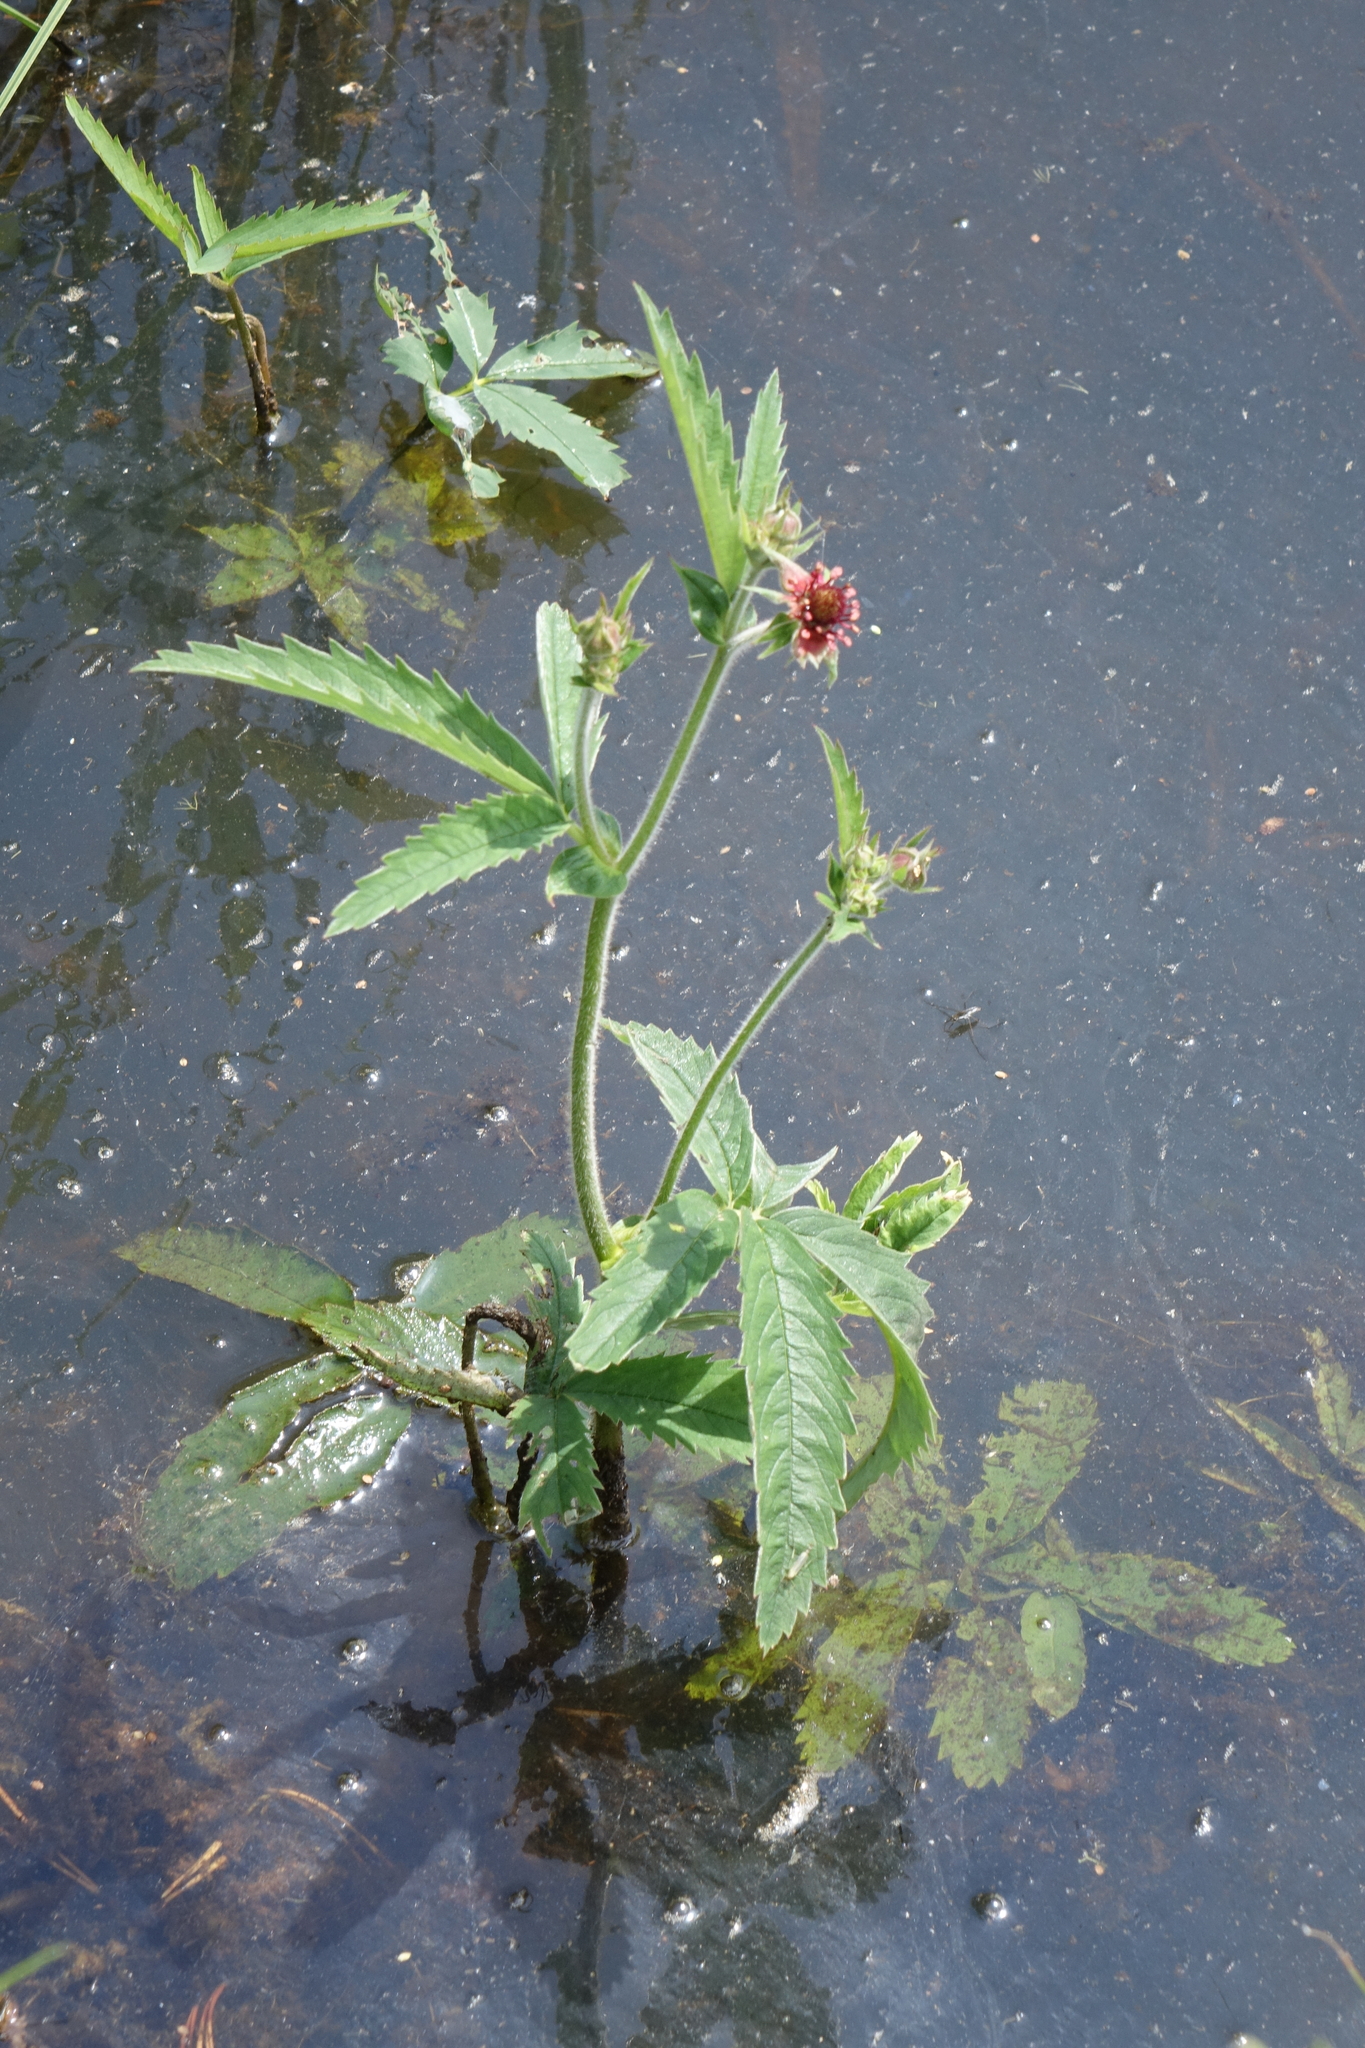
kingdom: Plantae
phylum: Tracheophyta
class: Magnoliopsida
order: Rosales
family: Rosaceae
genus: Comarum
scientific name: Comarum palustre
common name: Marsh cinquefoil
